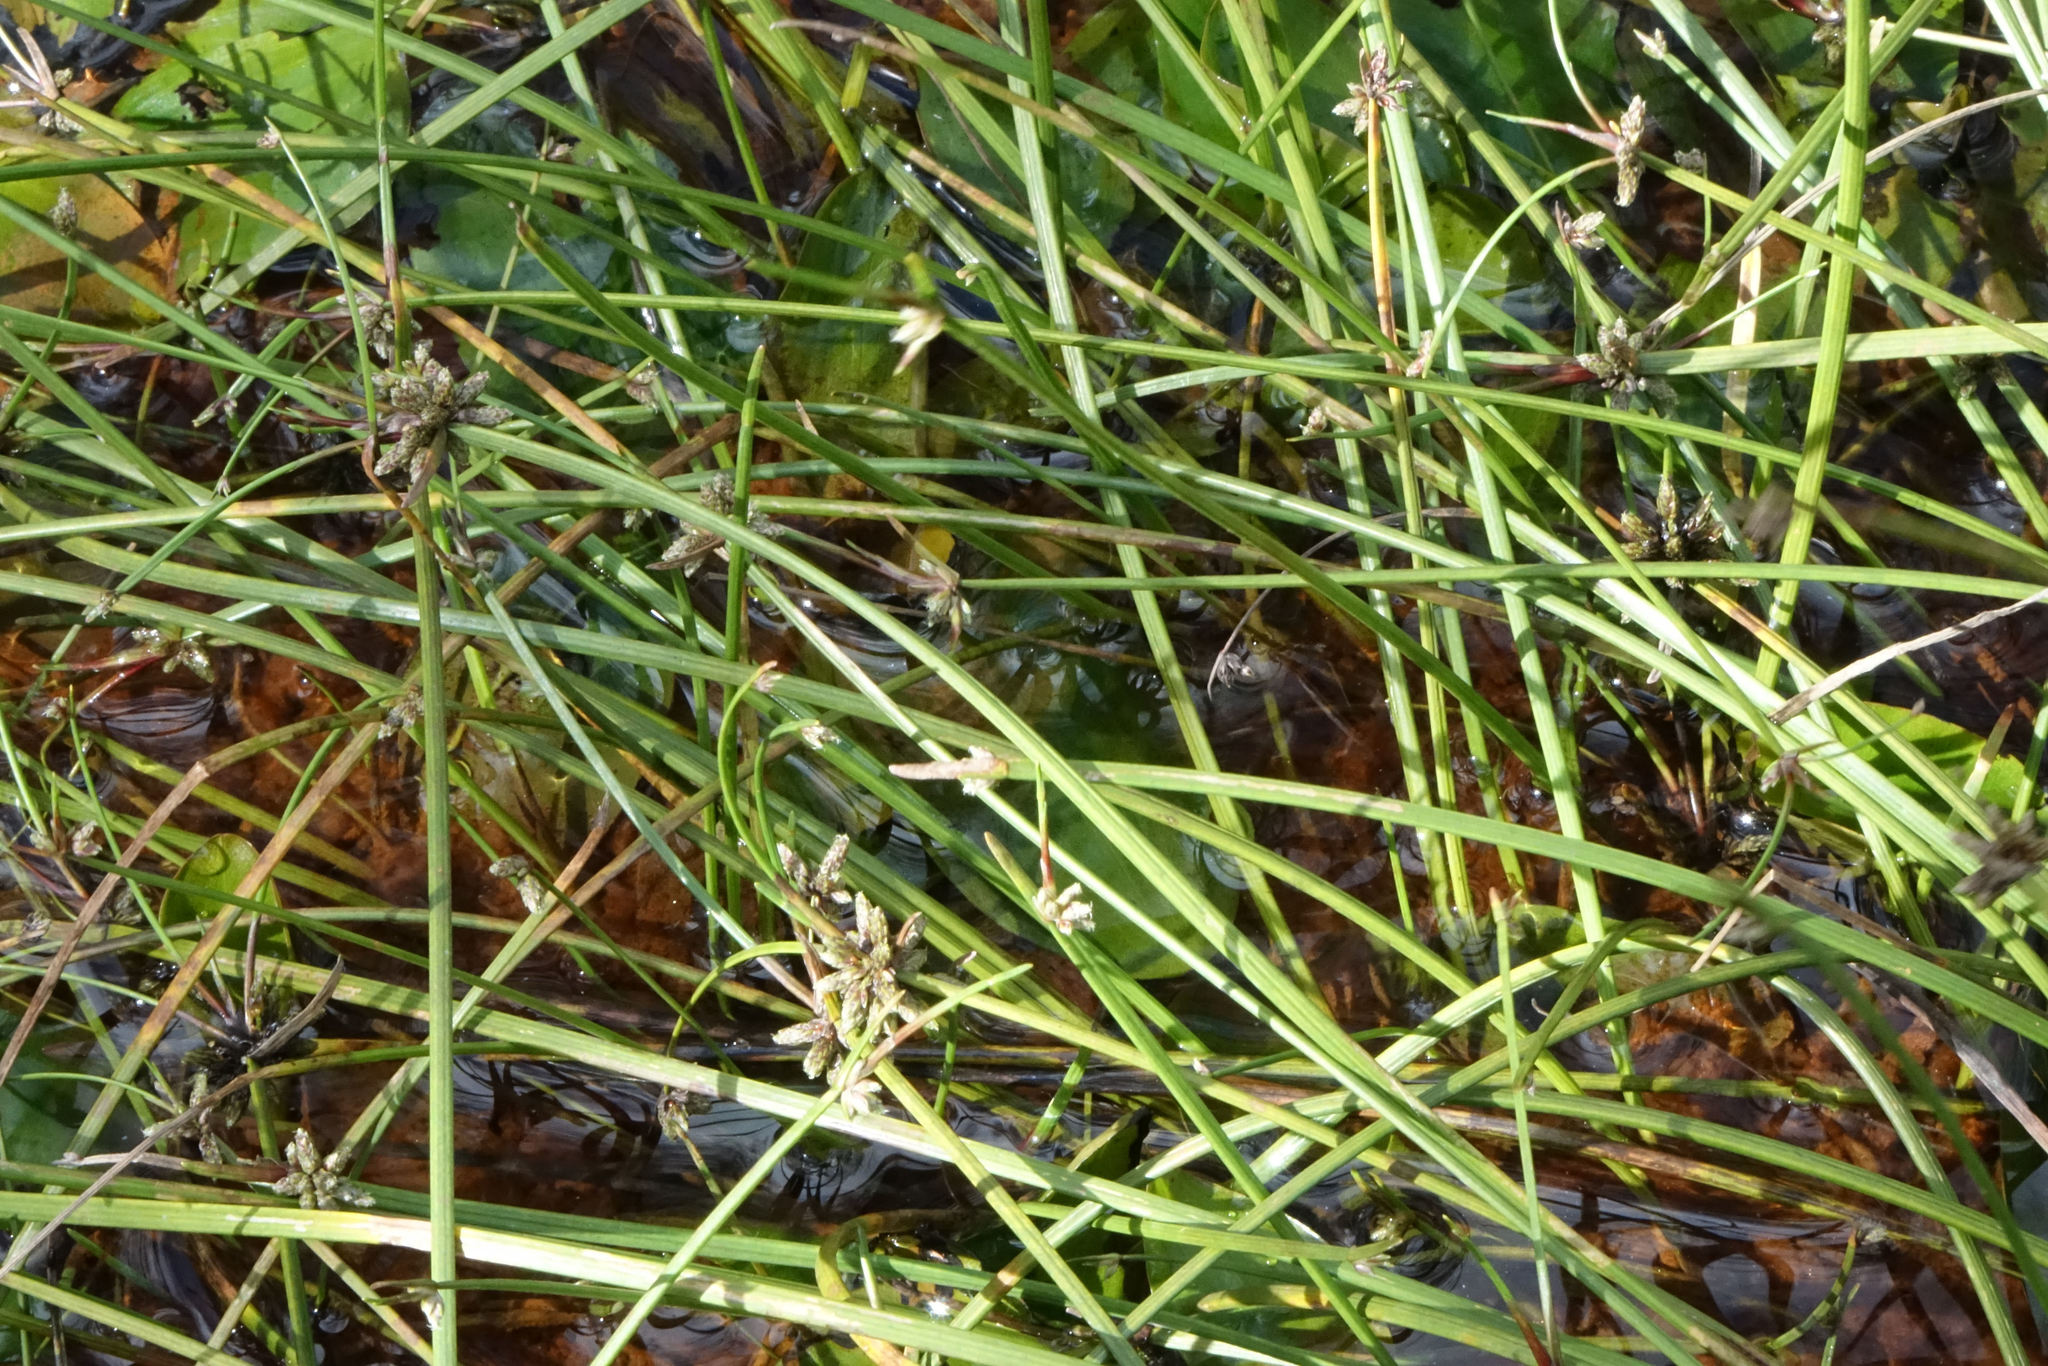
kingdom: Plantae
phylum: Tracheophyta
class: Liliopsida
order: Poales
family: Cyperaceae
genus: Isolepis
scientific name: Isolepis distigmatosa
